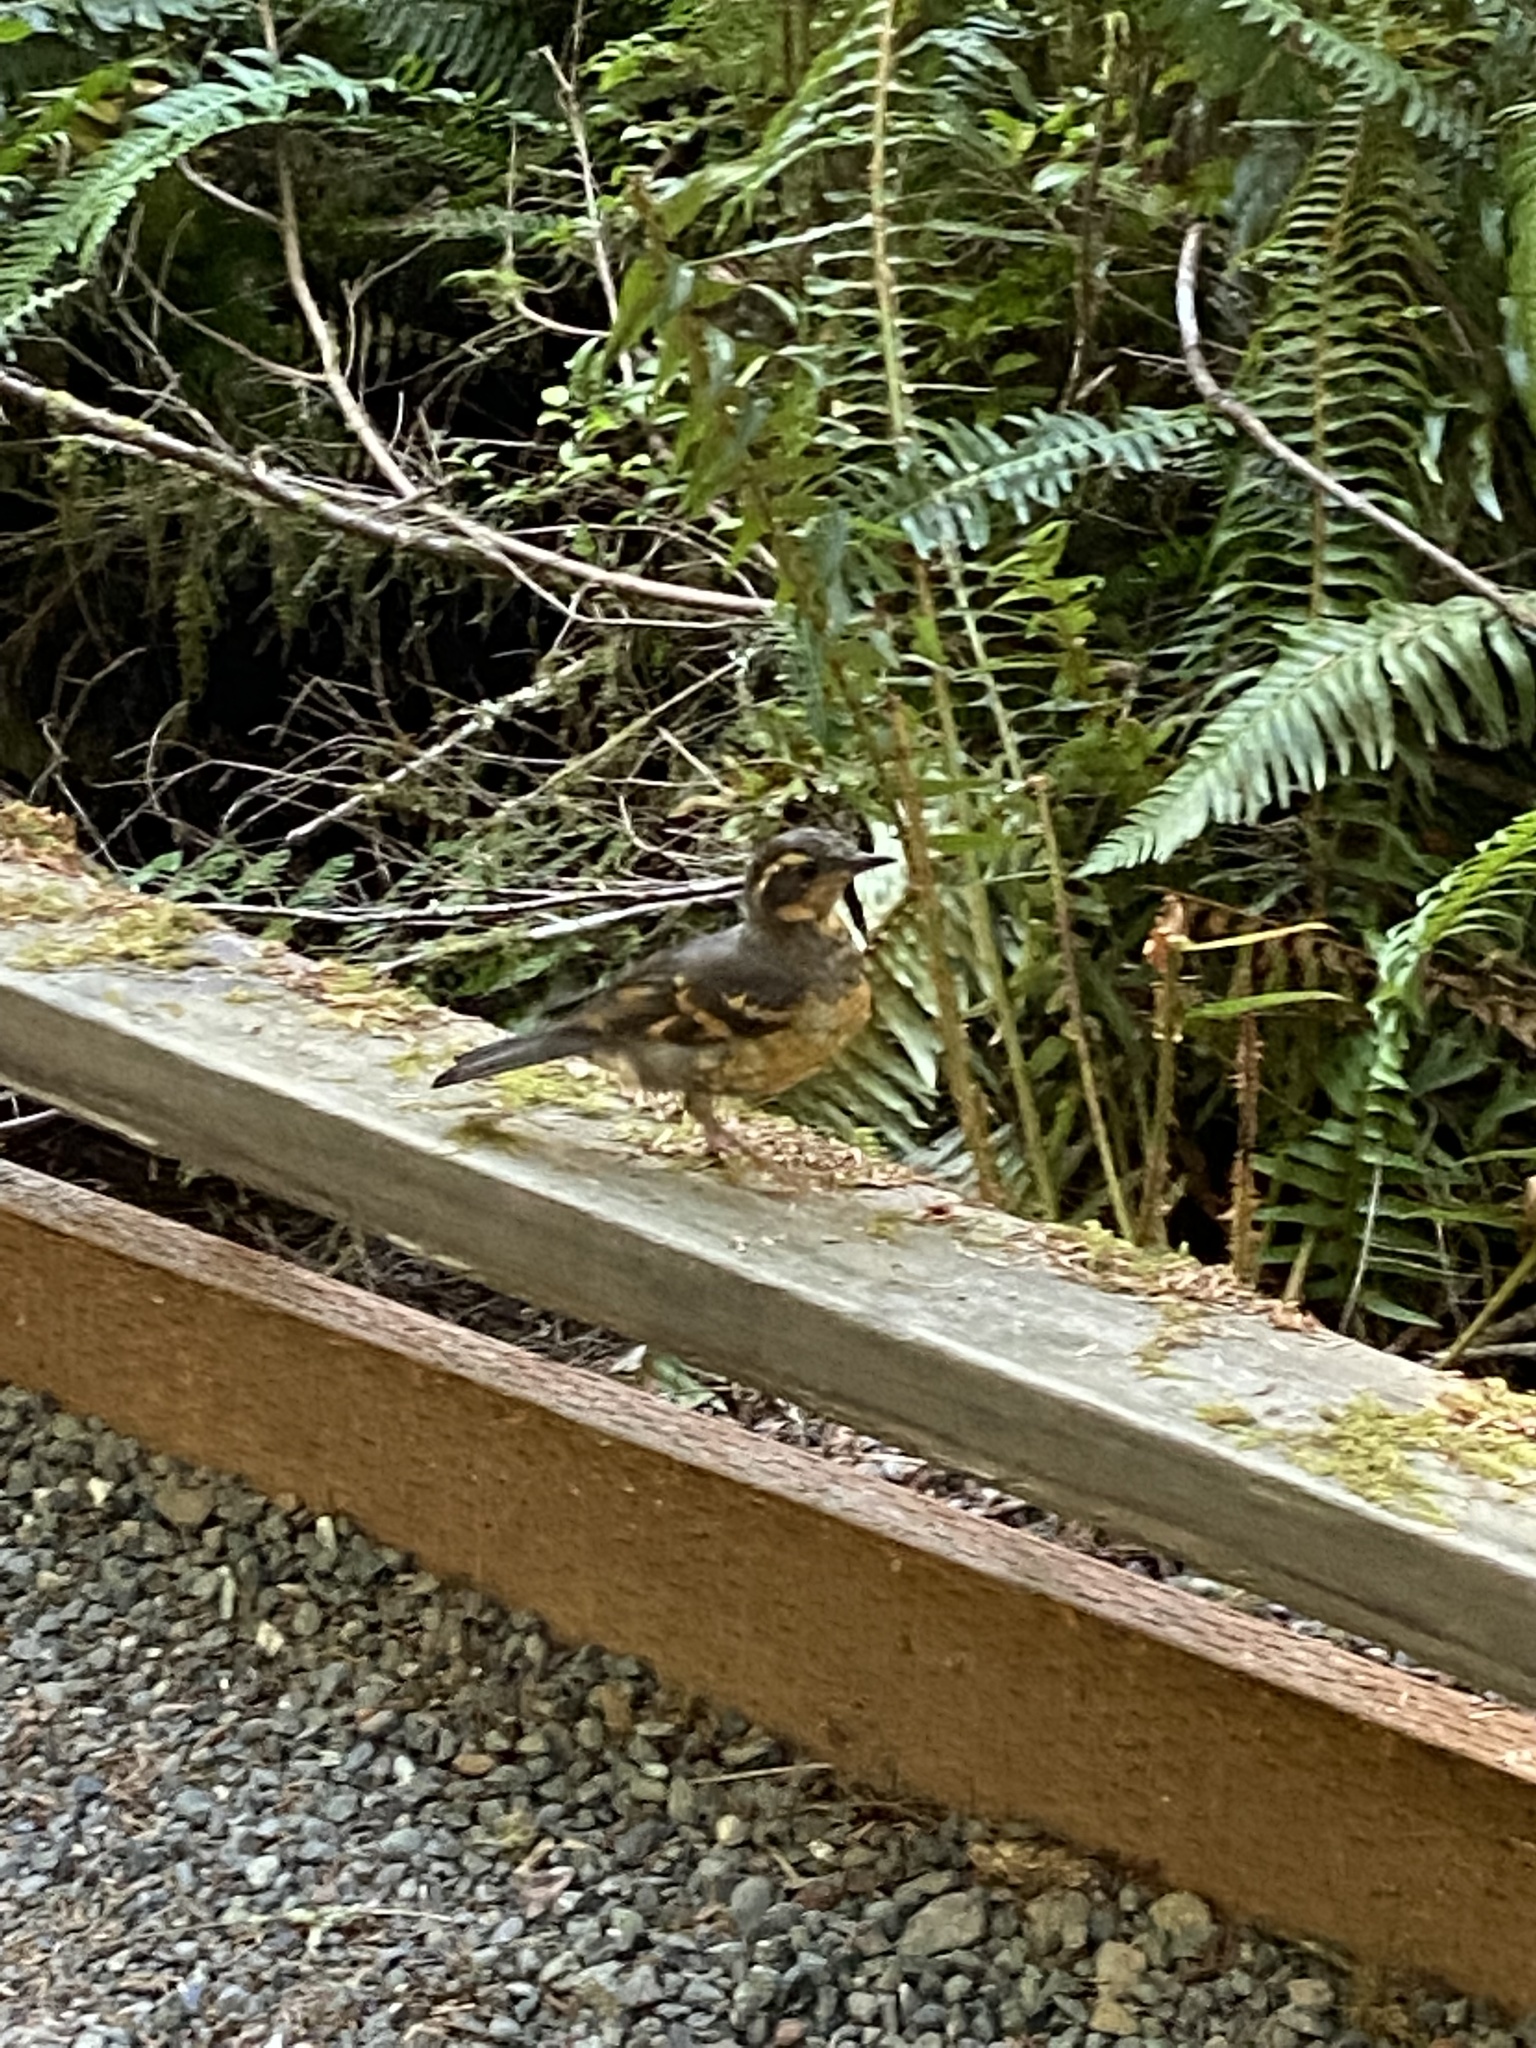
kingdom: Animalia
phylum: Chordata
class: Aves
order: Passeriformes
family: Turdidae
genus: Ixoreus
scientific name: Ixoreus naevius
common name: Varied thrush
